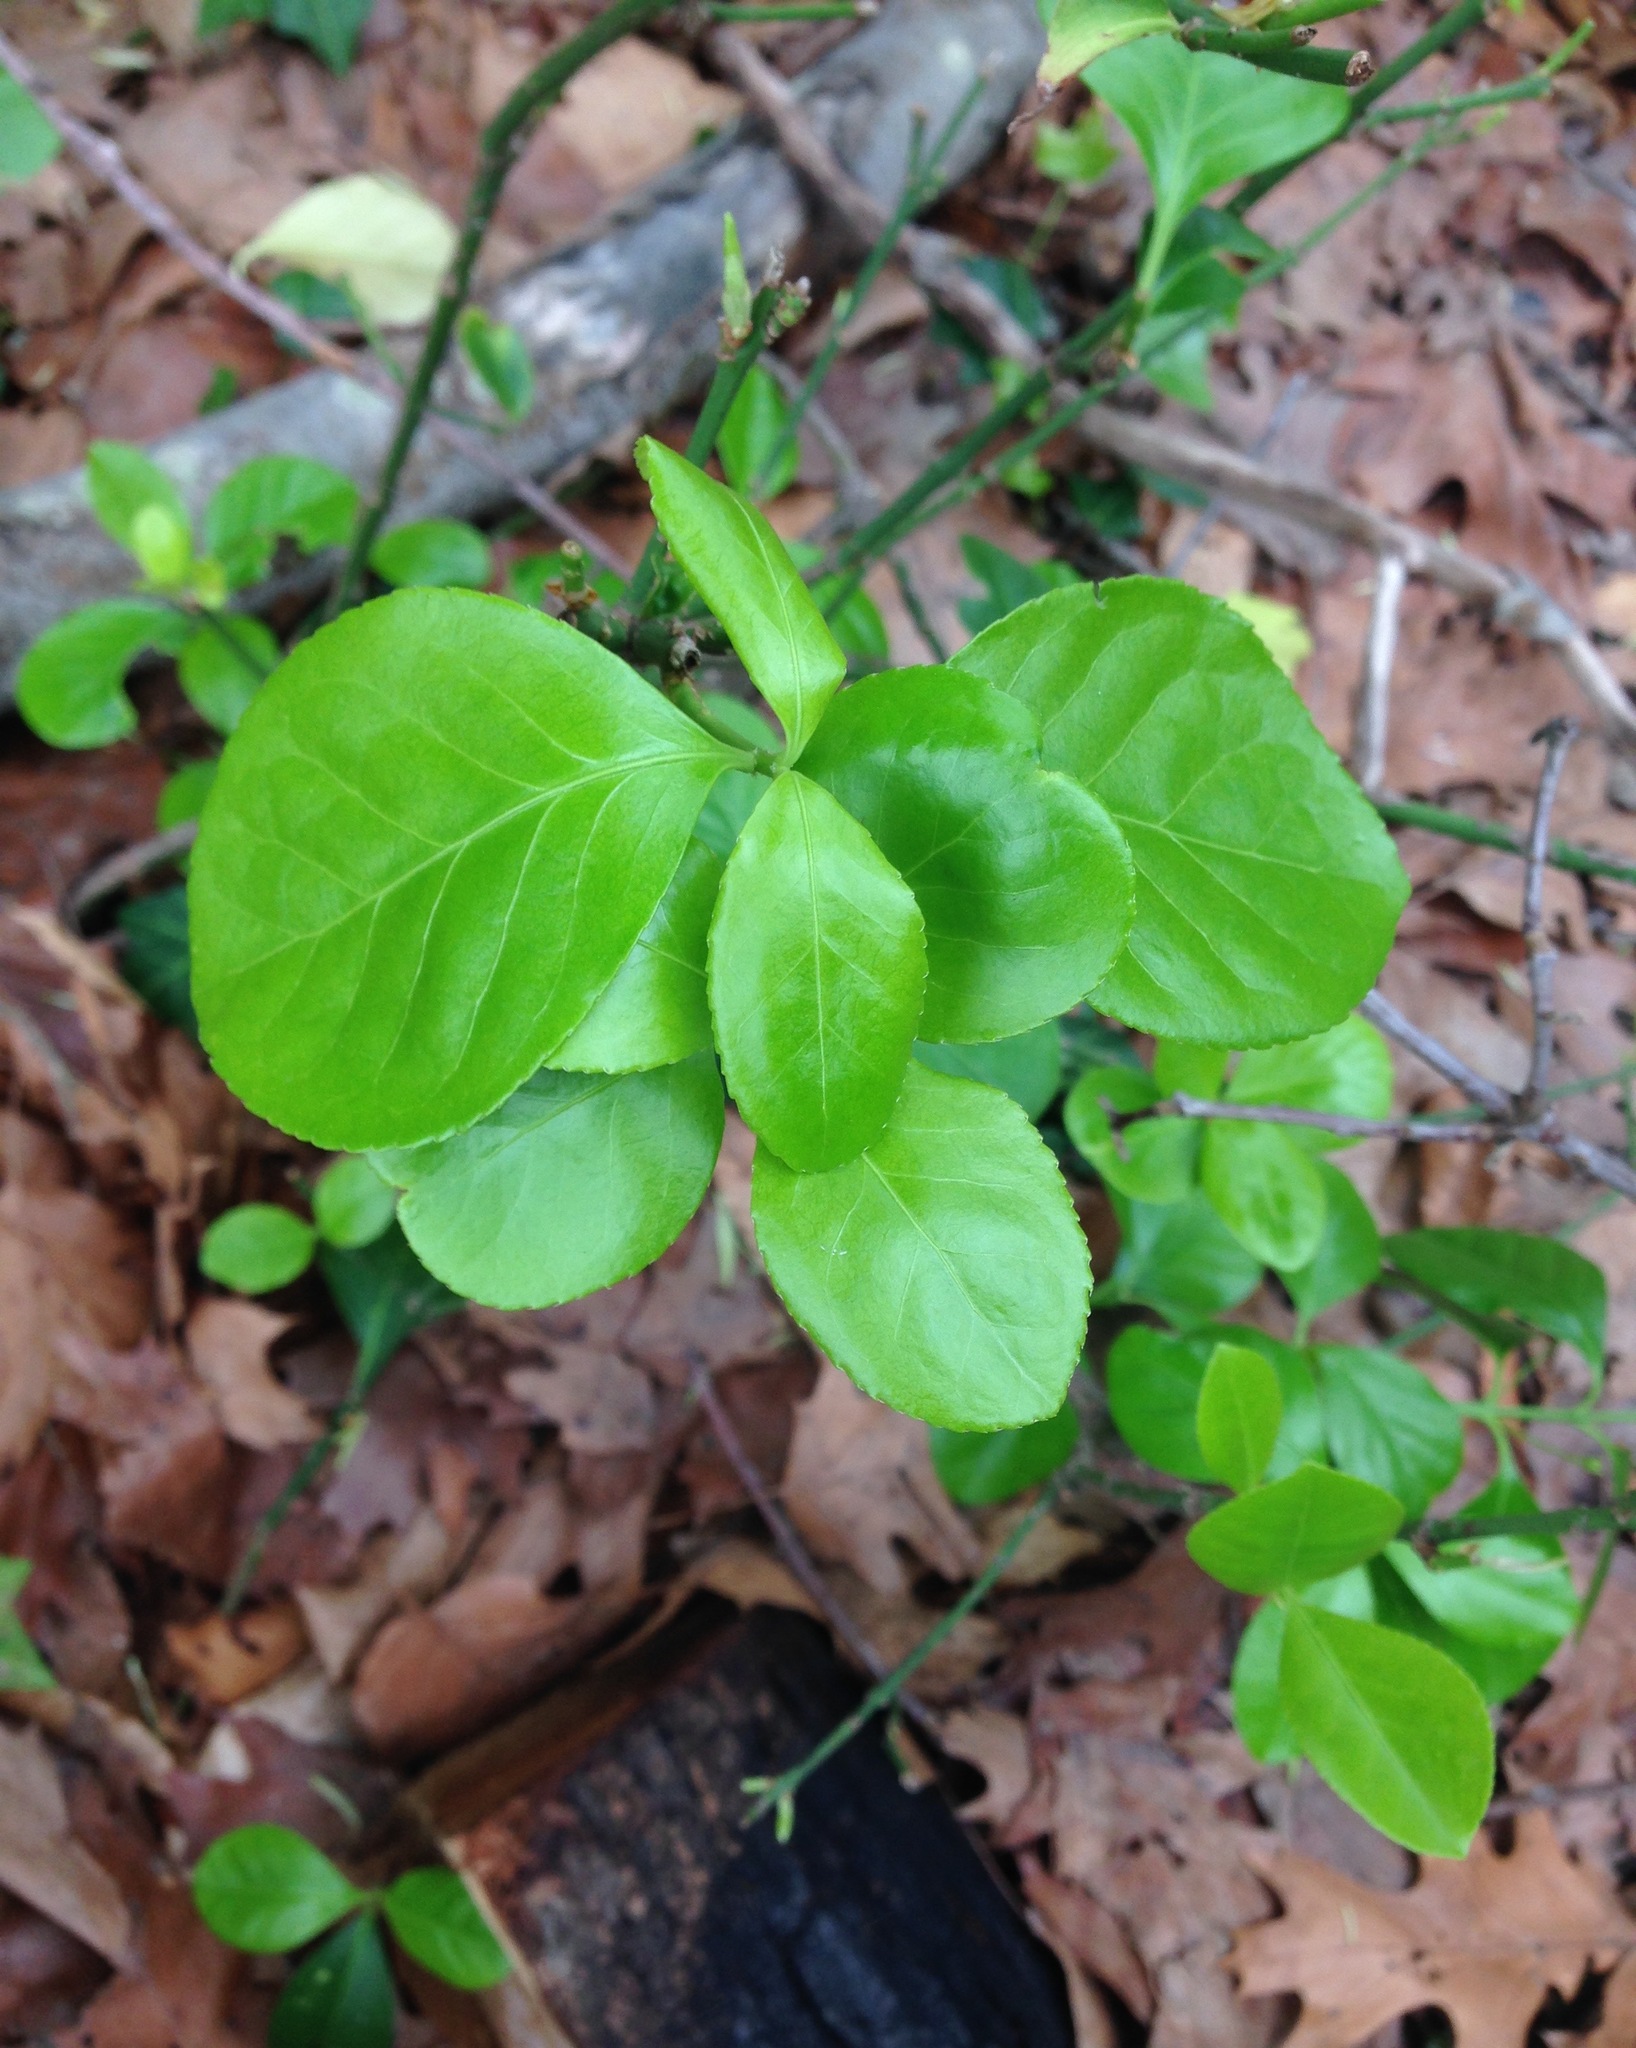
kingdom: Plantae
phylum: Tracheophyta
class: Magnoliopsida
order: Celastrales
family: Celastraceae
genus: Celastrus
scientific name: Celastrus orbiculatus
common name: Oriental bittersweet
